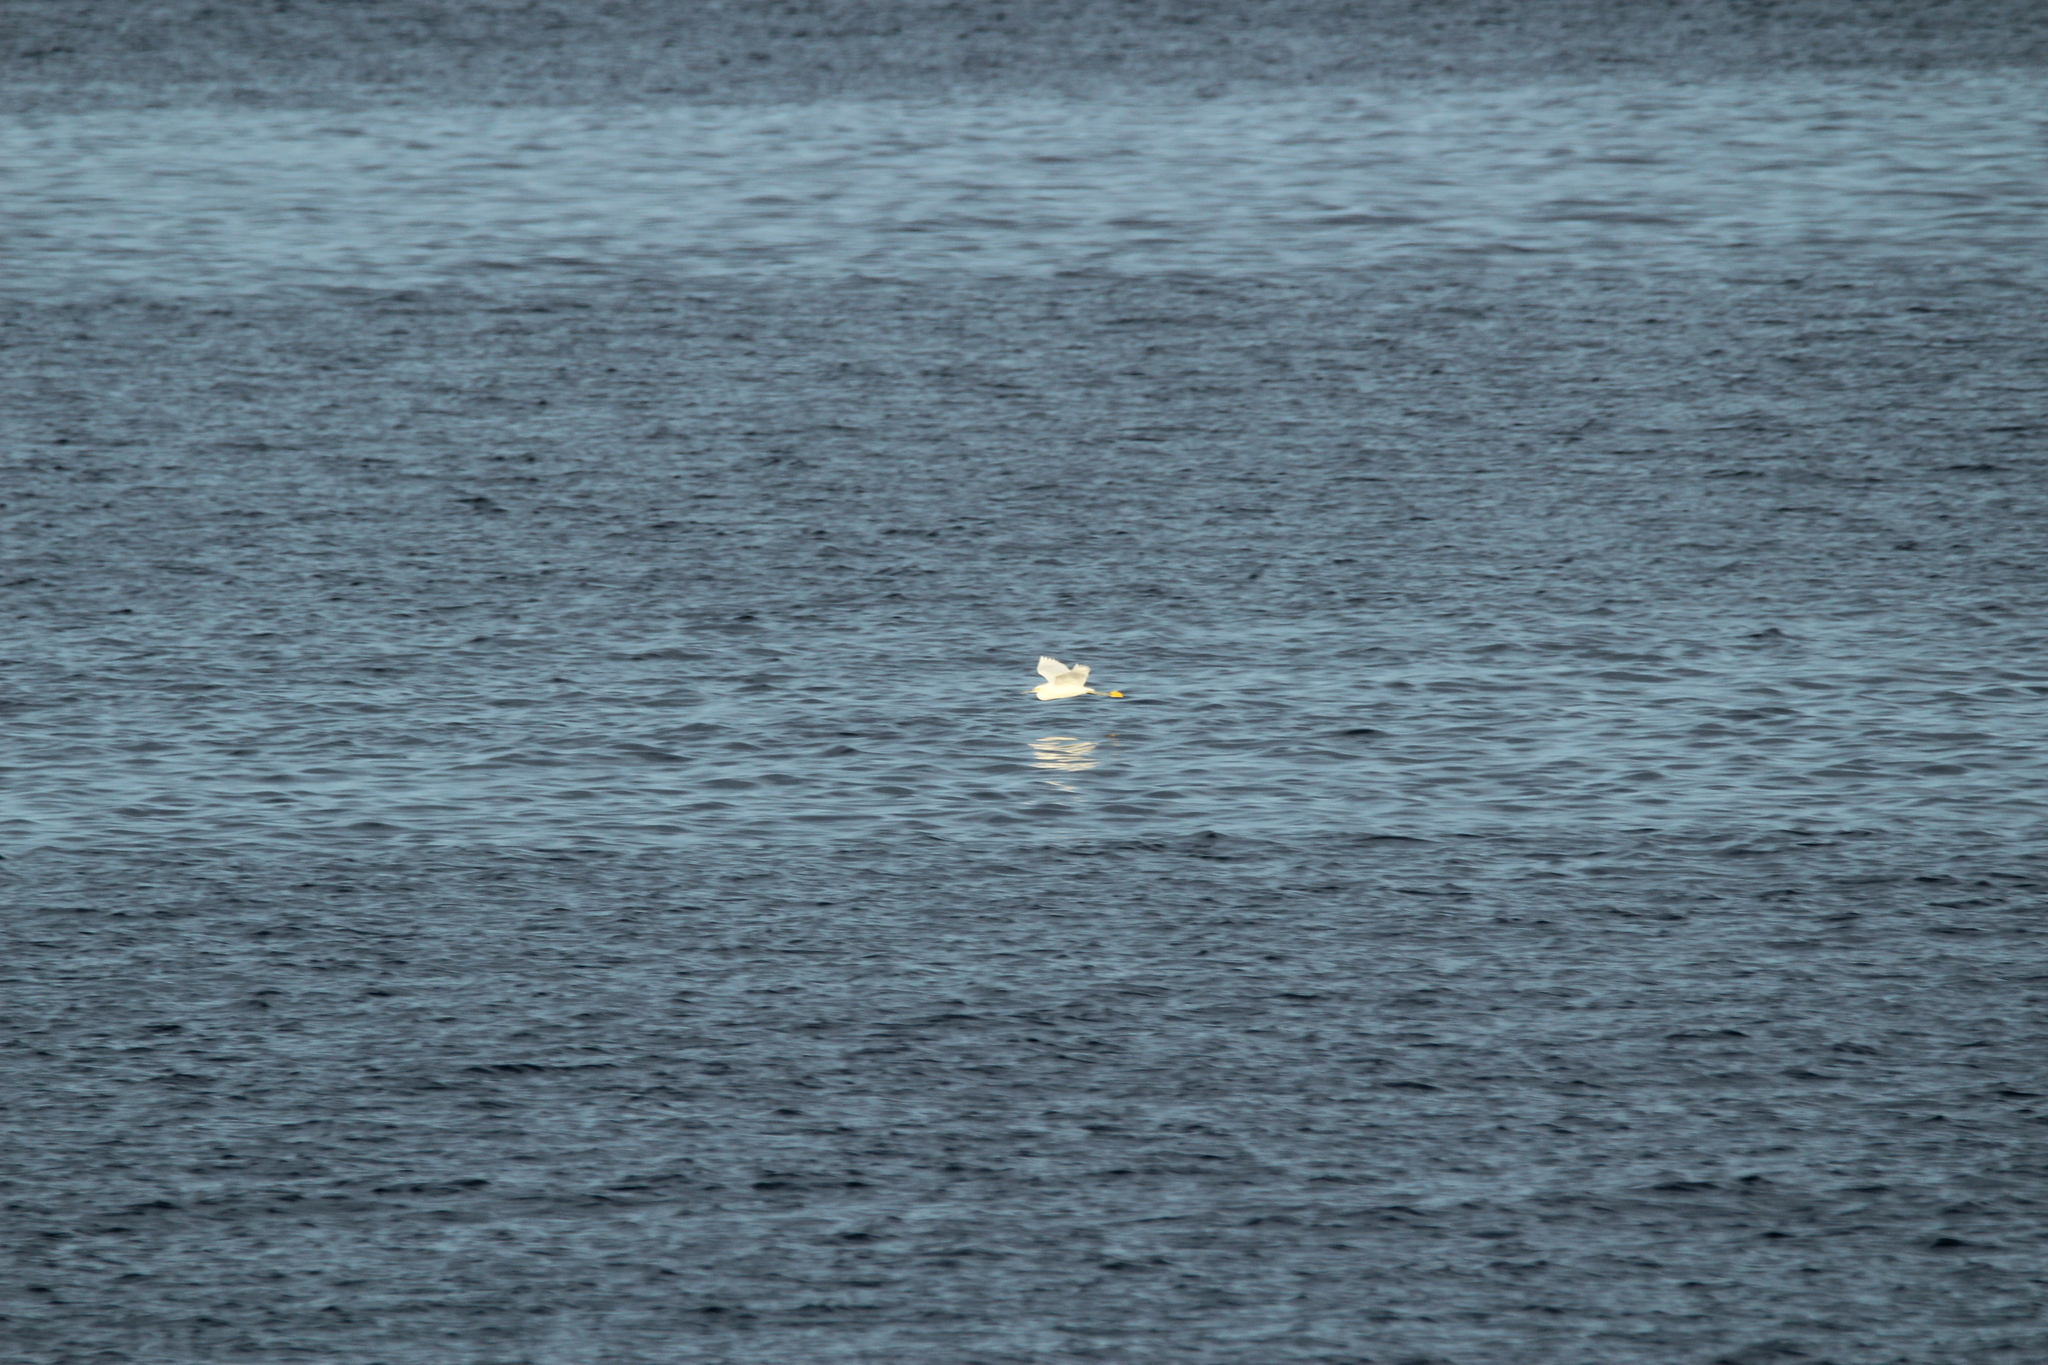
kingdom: Animalia
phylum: Chordata
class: Aves
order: Pelecaniformes
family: Ardeidae
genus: Egretta
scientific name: Egretta thula
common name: Snowy egret
